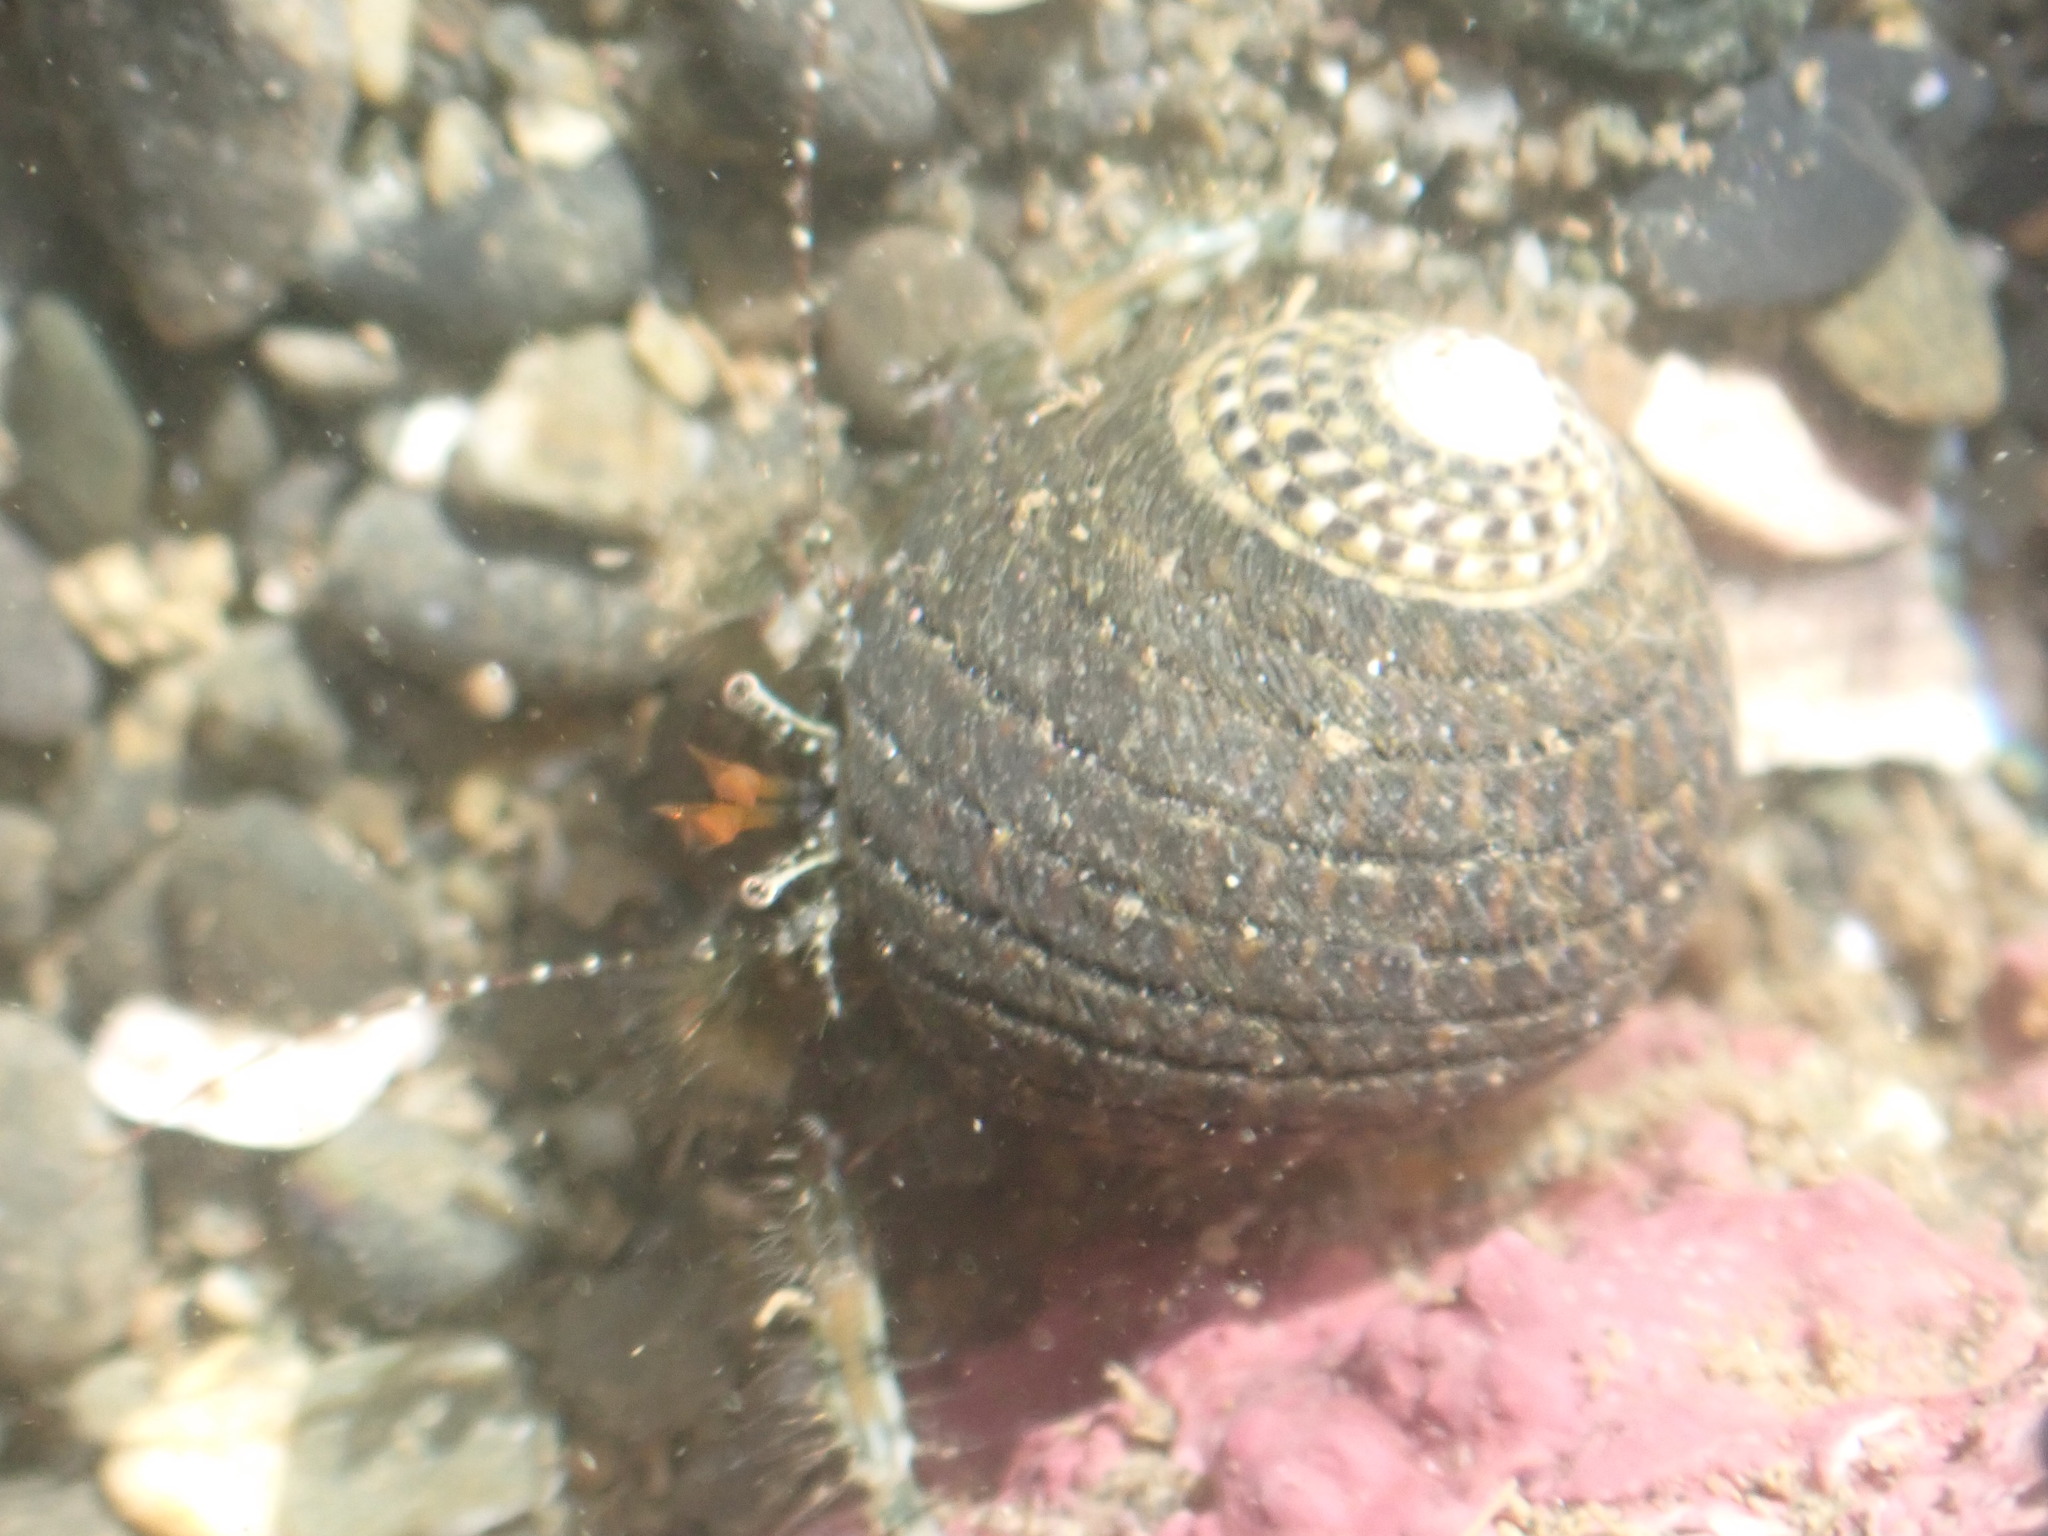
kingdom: Animalia
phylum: Arthropoda
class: Malacostraca
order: Decapoda
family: Paguridae
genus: Pagurus
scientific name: Pagurus traversi
